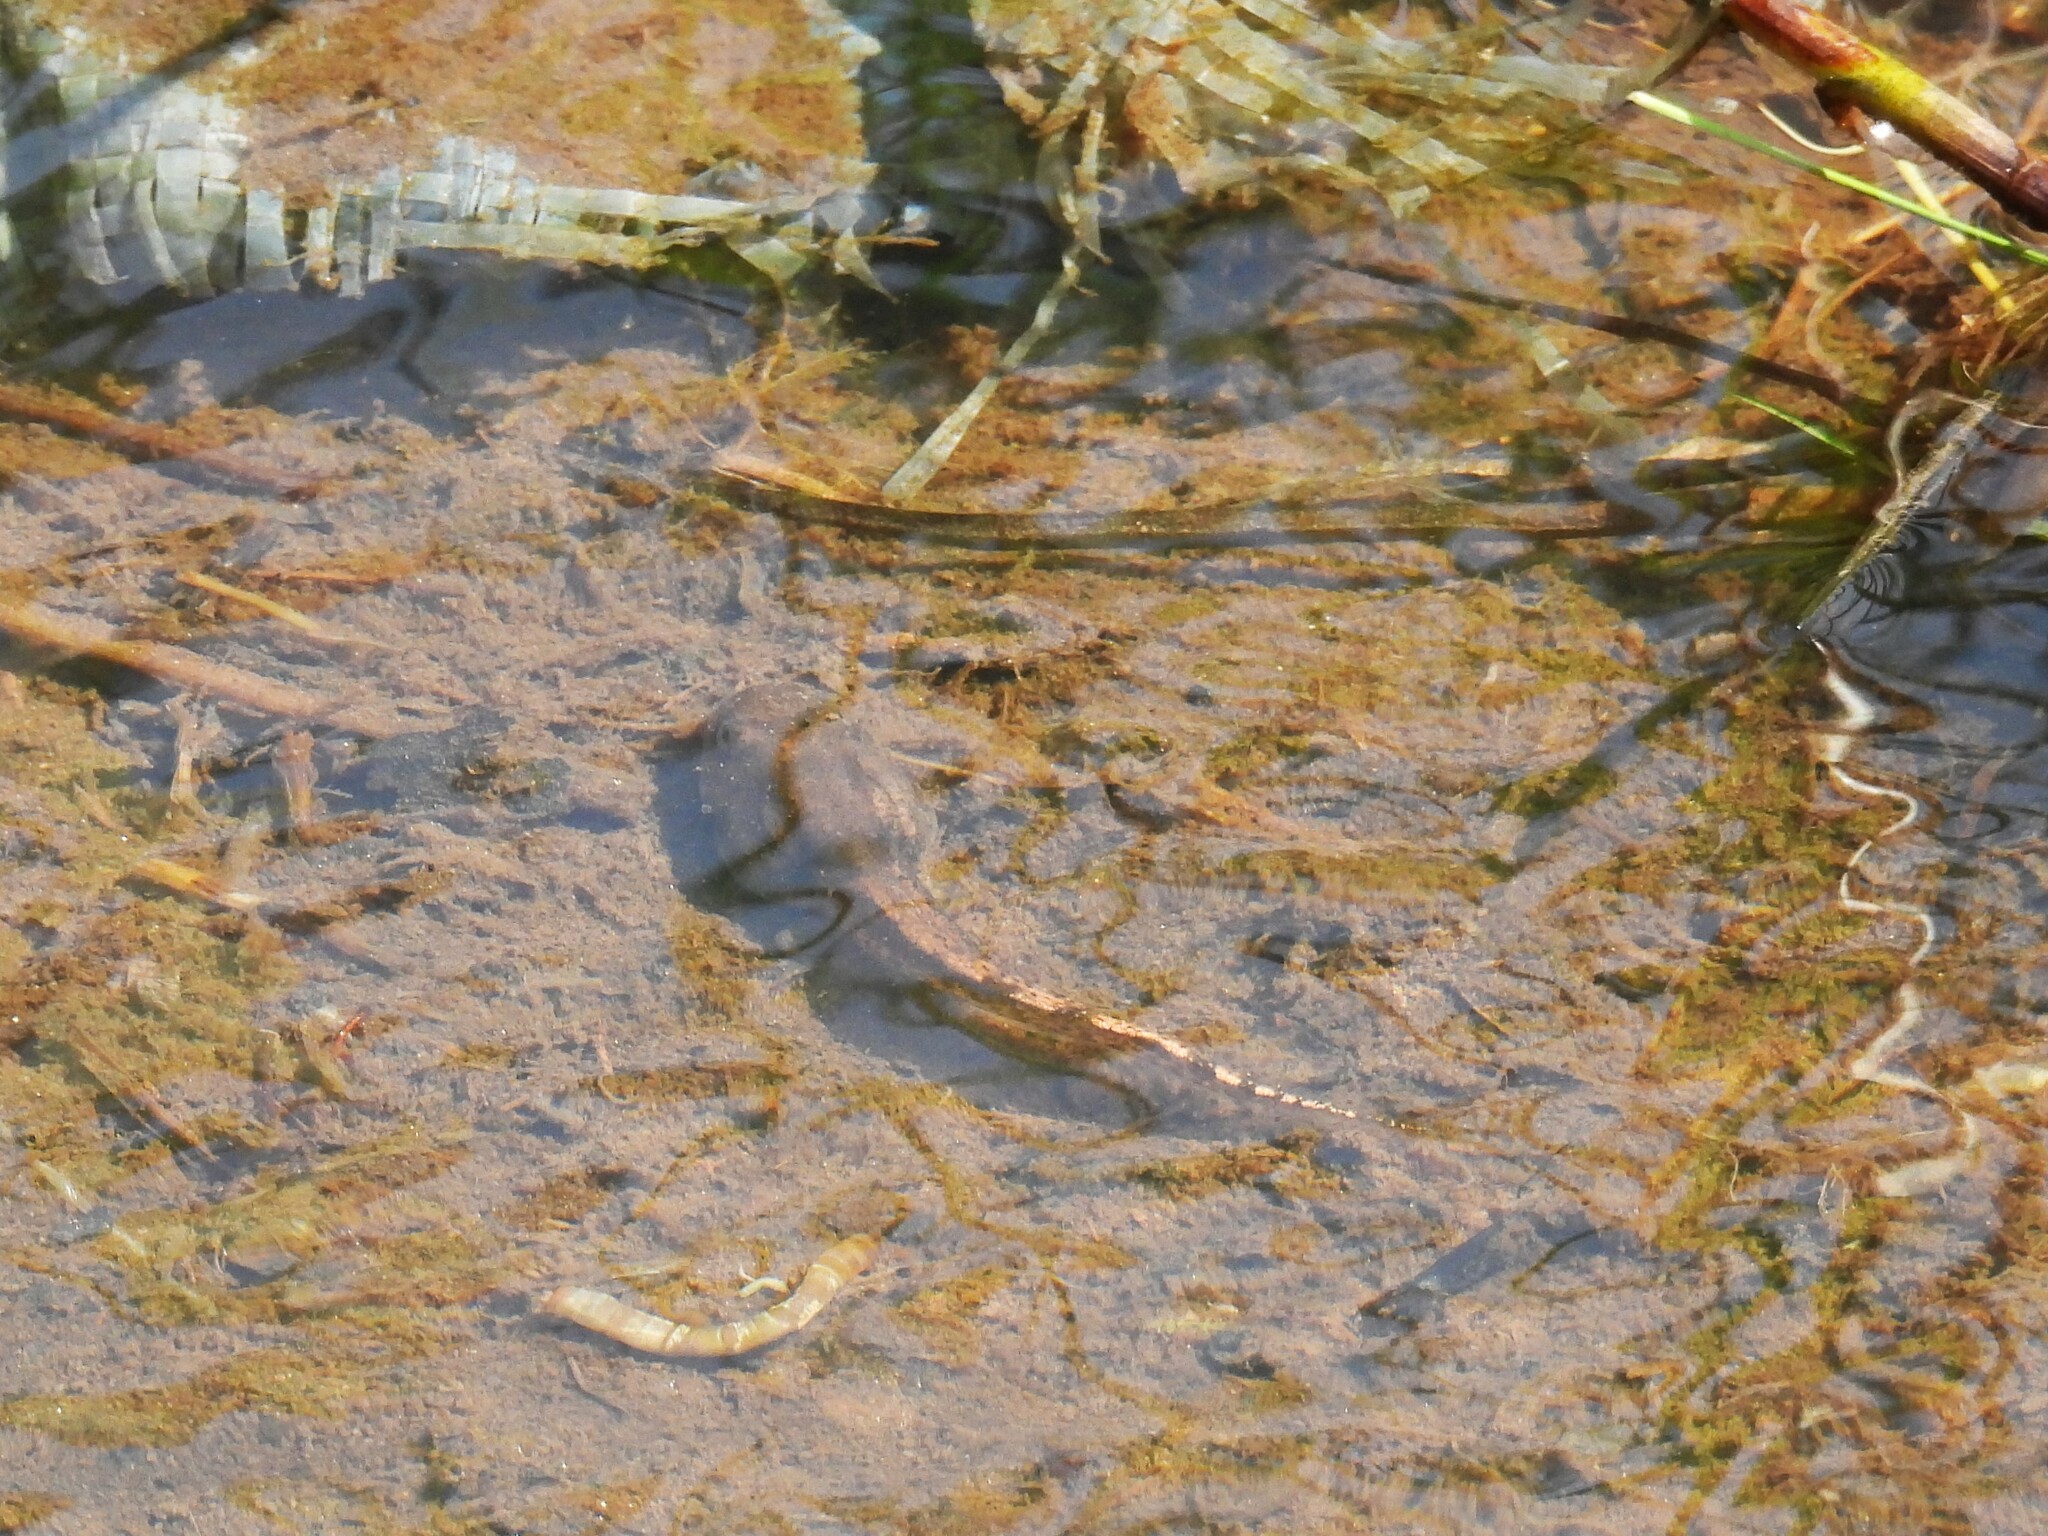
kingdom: Animalia
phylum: Chordata
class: Amphibia
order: Anura
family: Pyxicephalidae
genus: Amietia
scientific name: Amietia tenuoplicata
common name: River frog
